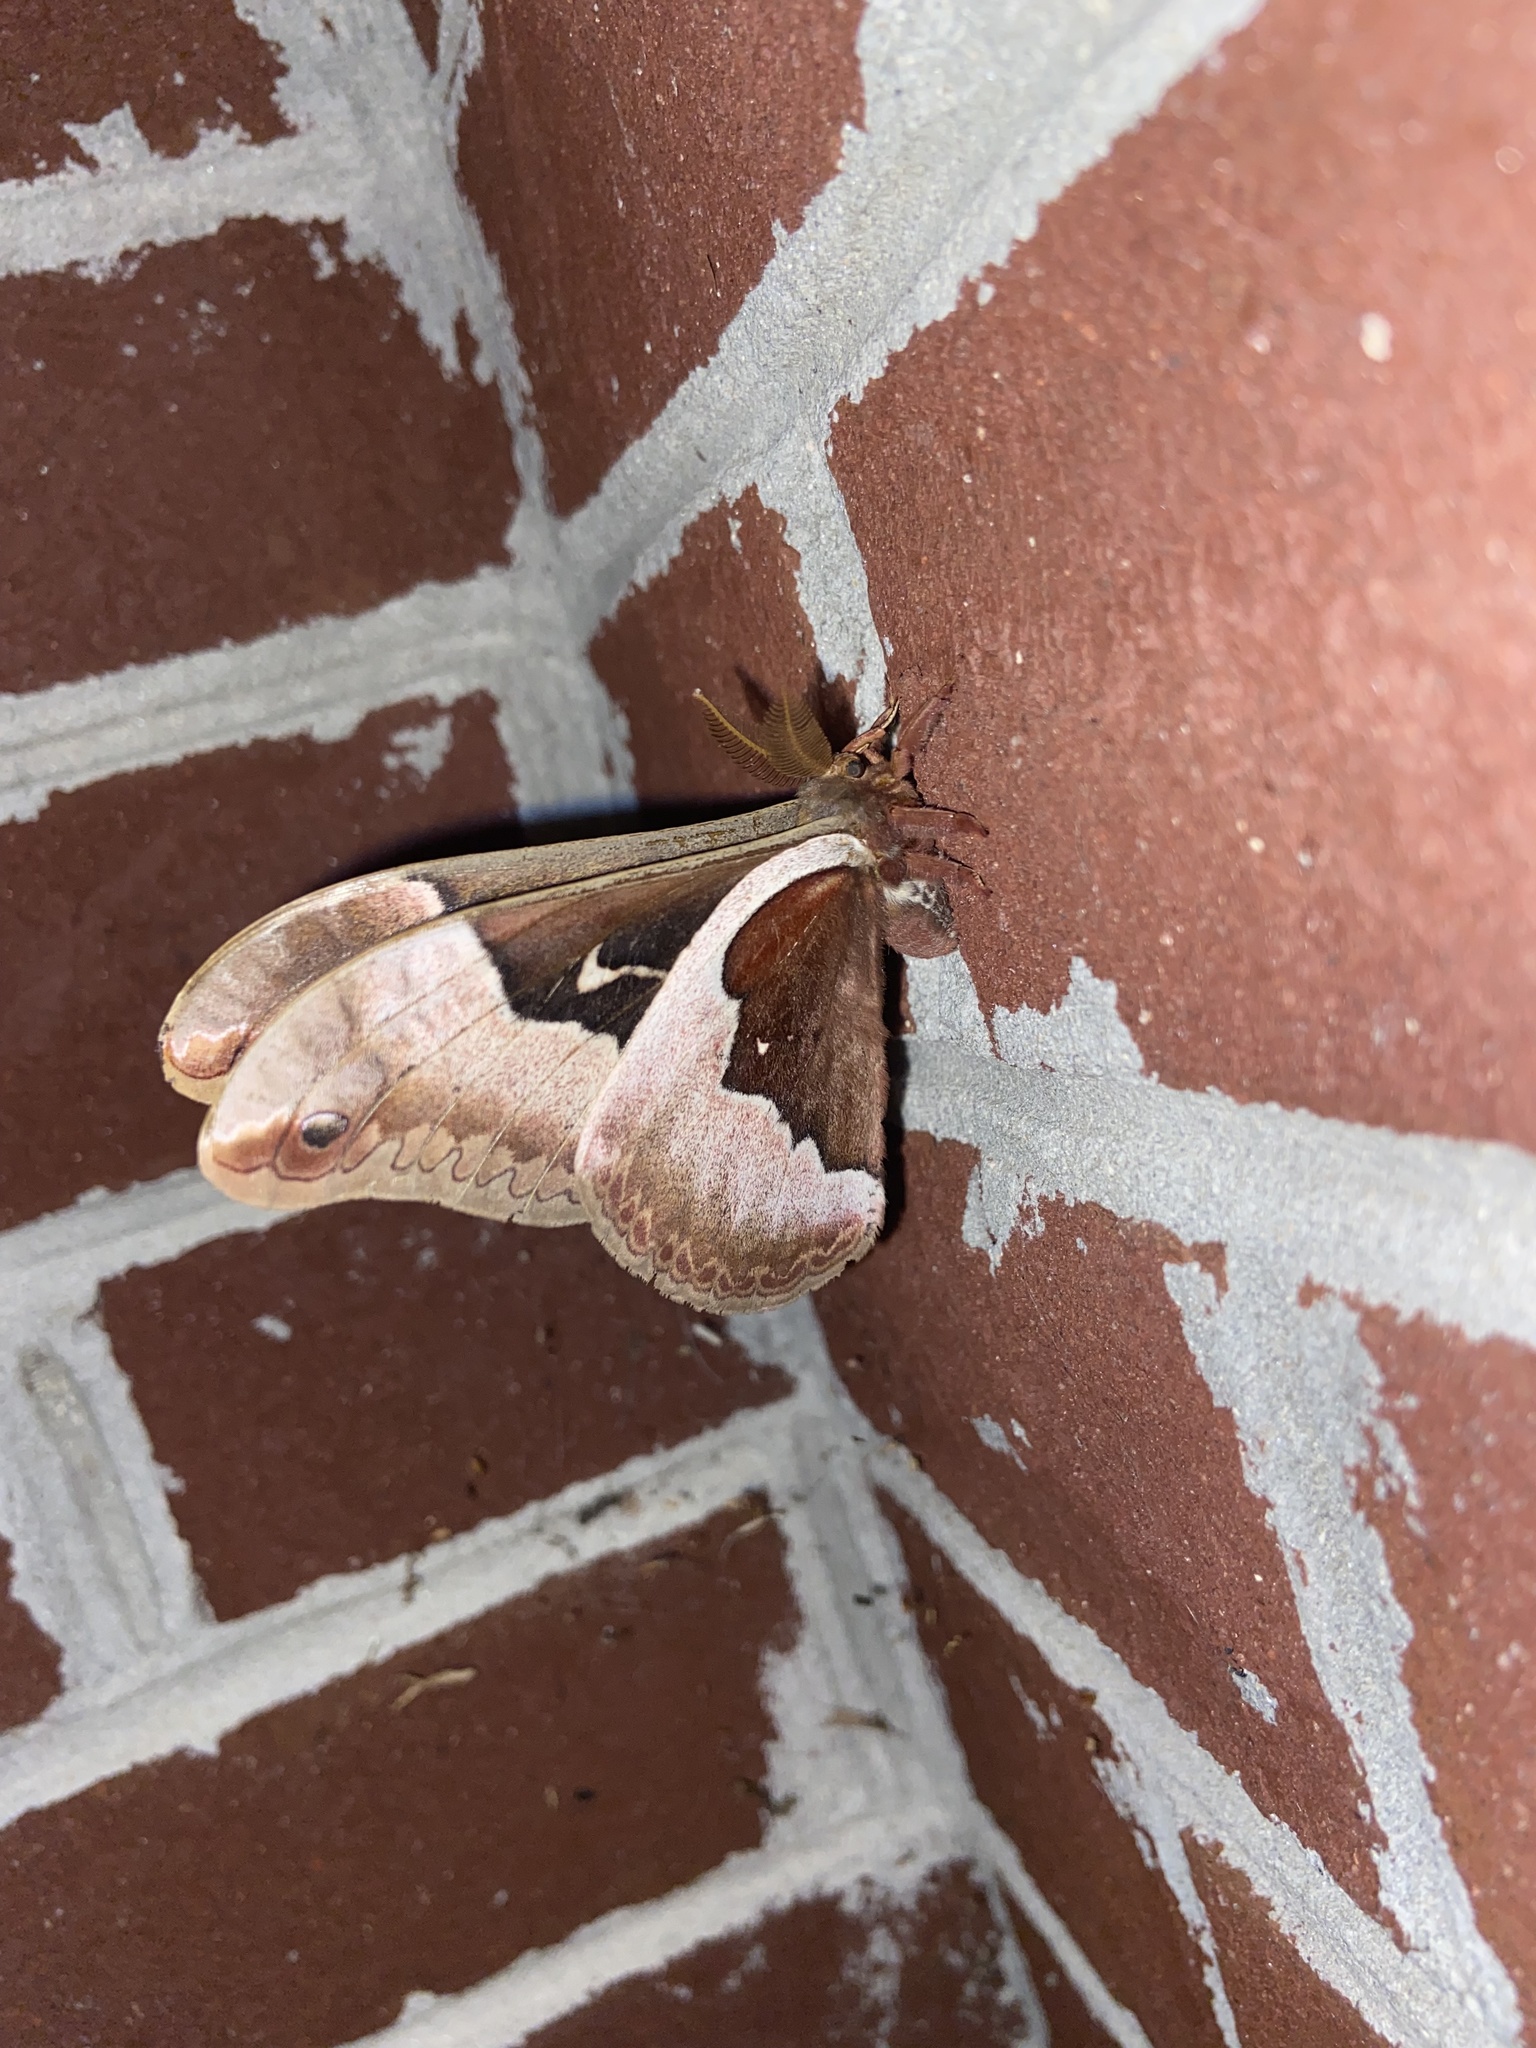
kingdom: Animalia
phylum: Arthropoda
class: Insecta
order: Lepidoptera
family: Saturniidae
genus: Callosamia
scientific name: Callosamia angulifera
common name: Tulip tree silkmoth
